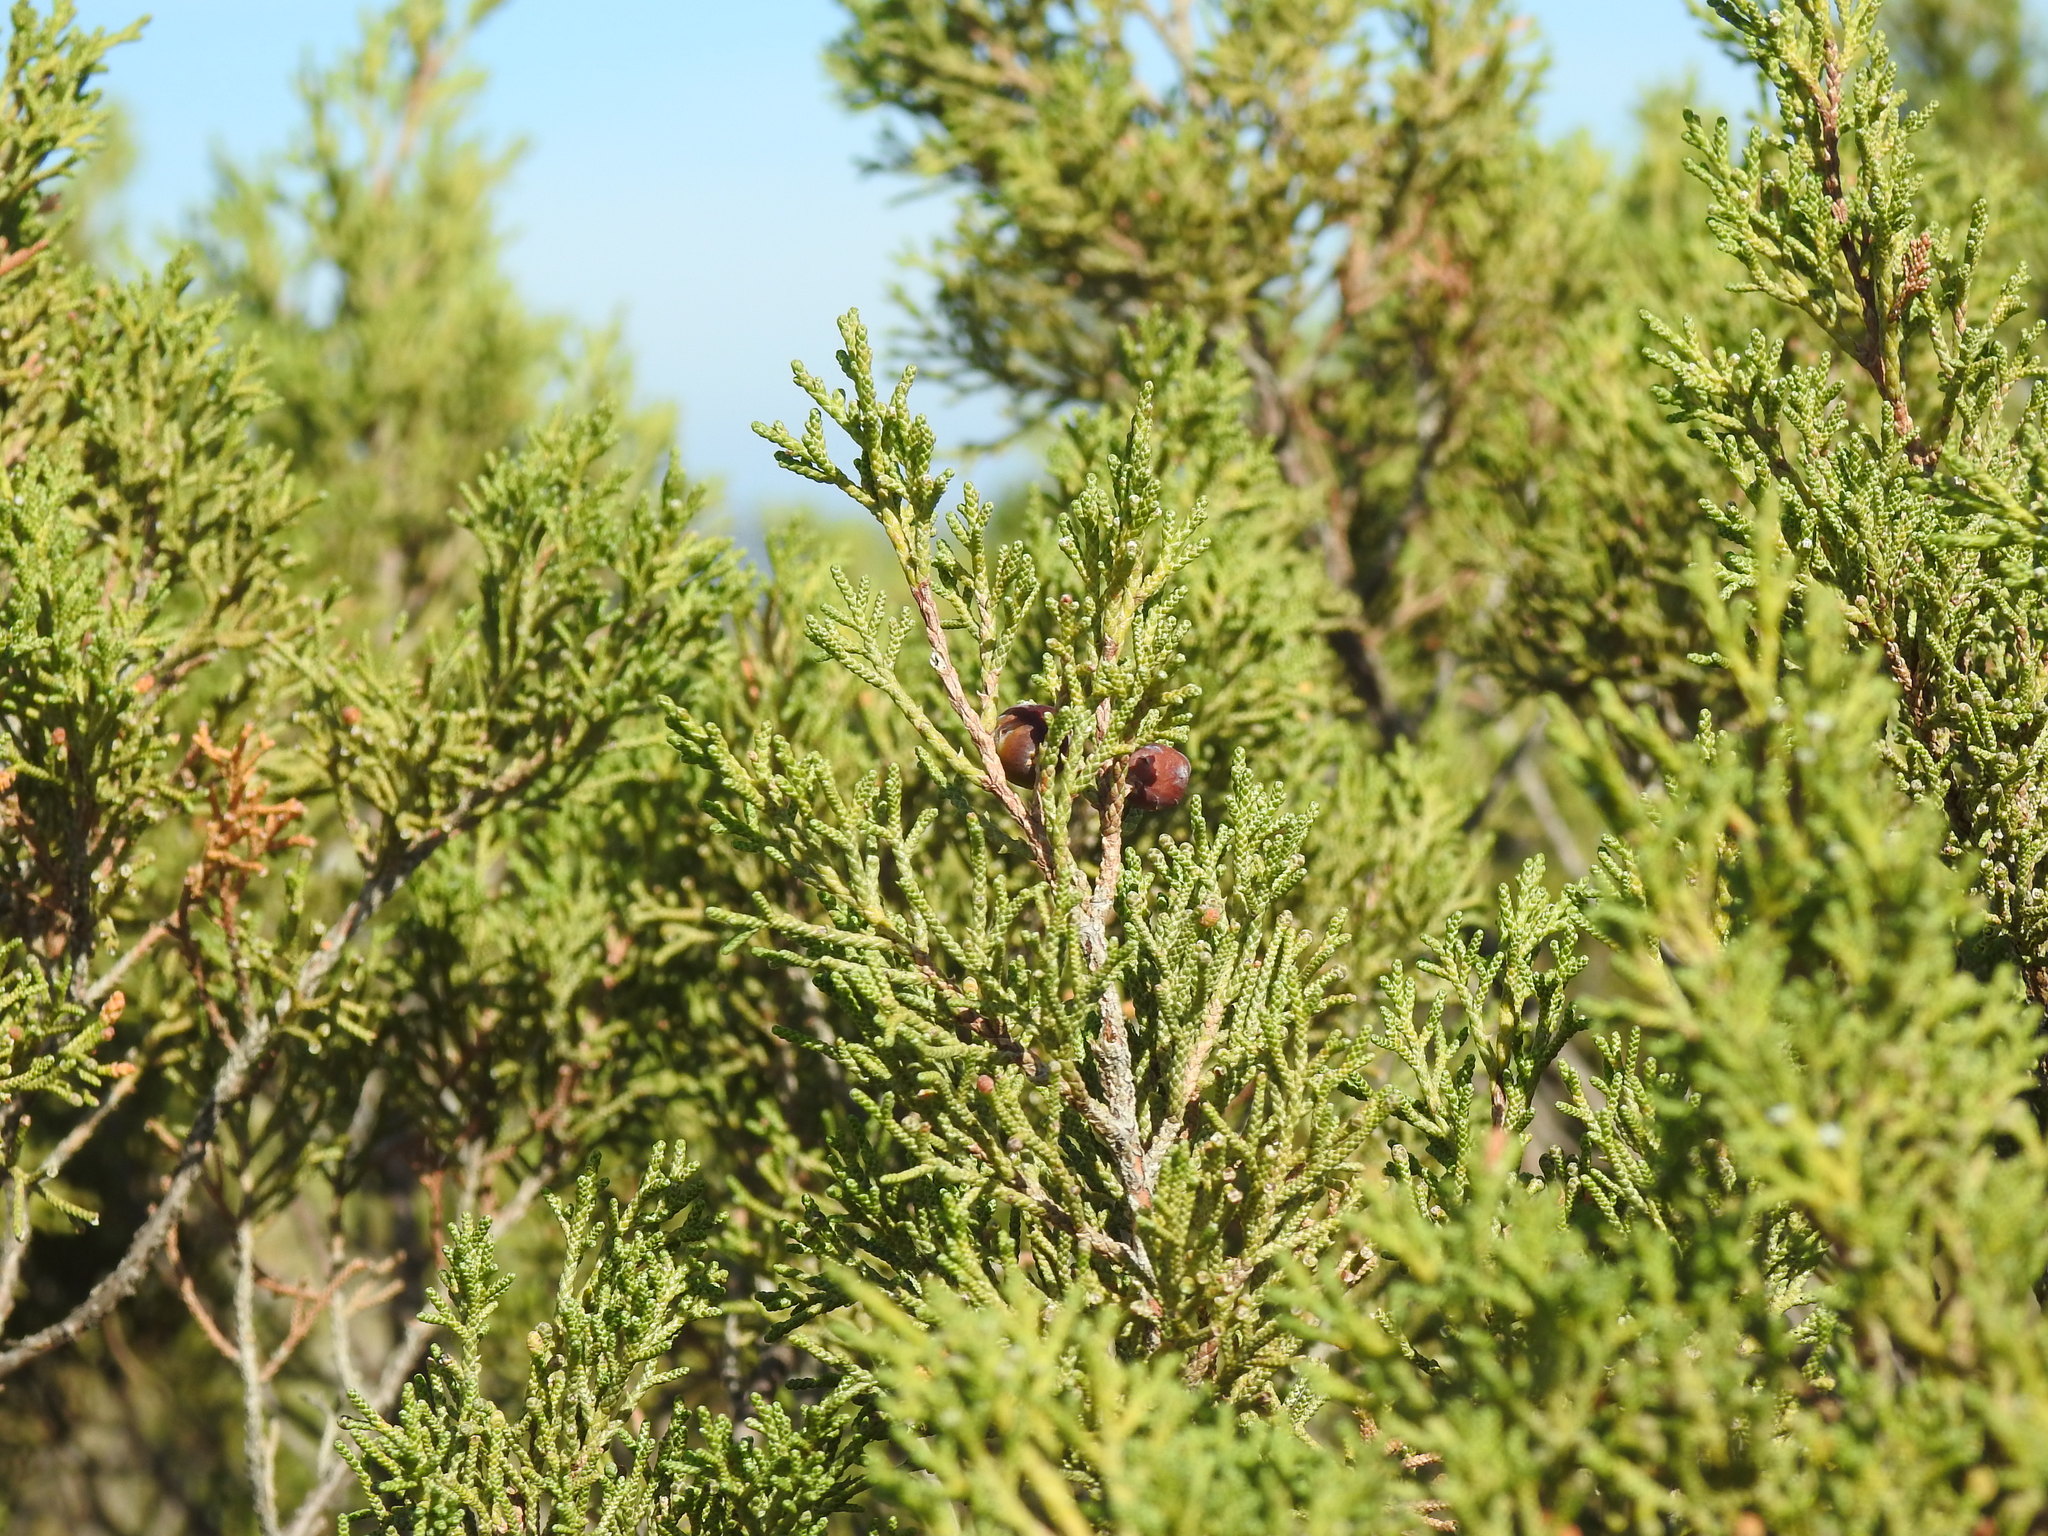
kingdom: Plantae
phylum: Tracheophyta
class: Pinopsida
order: Pinales
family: Cupressaceae
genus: Juniperus
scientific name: Juniperus phoenicea
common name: Phoenician juniper
